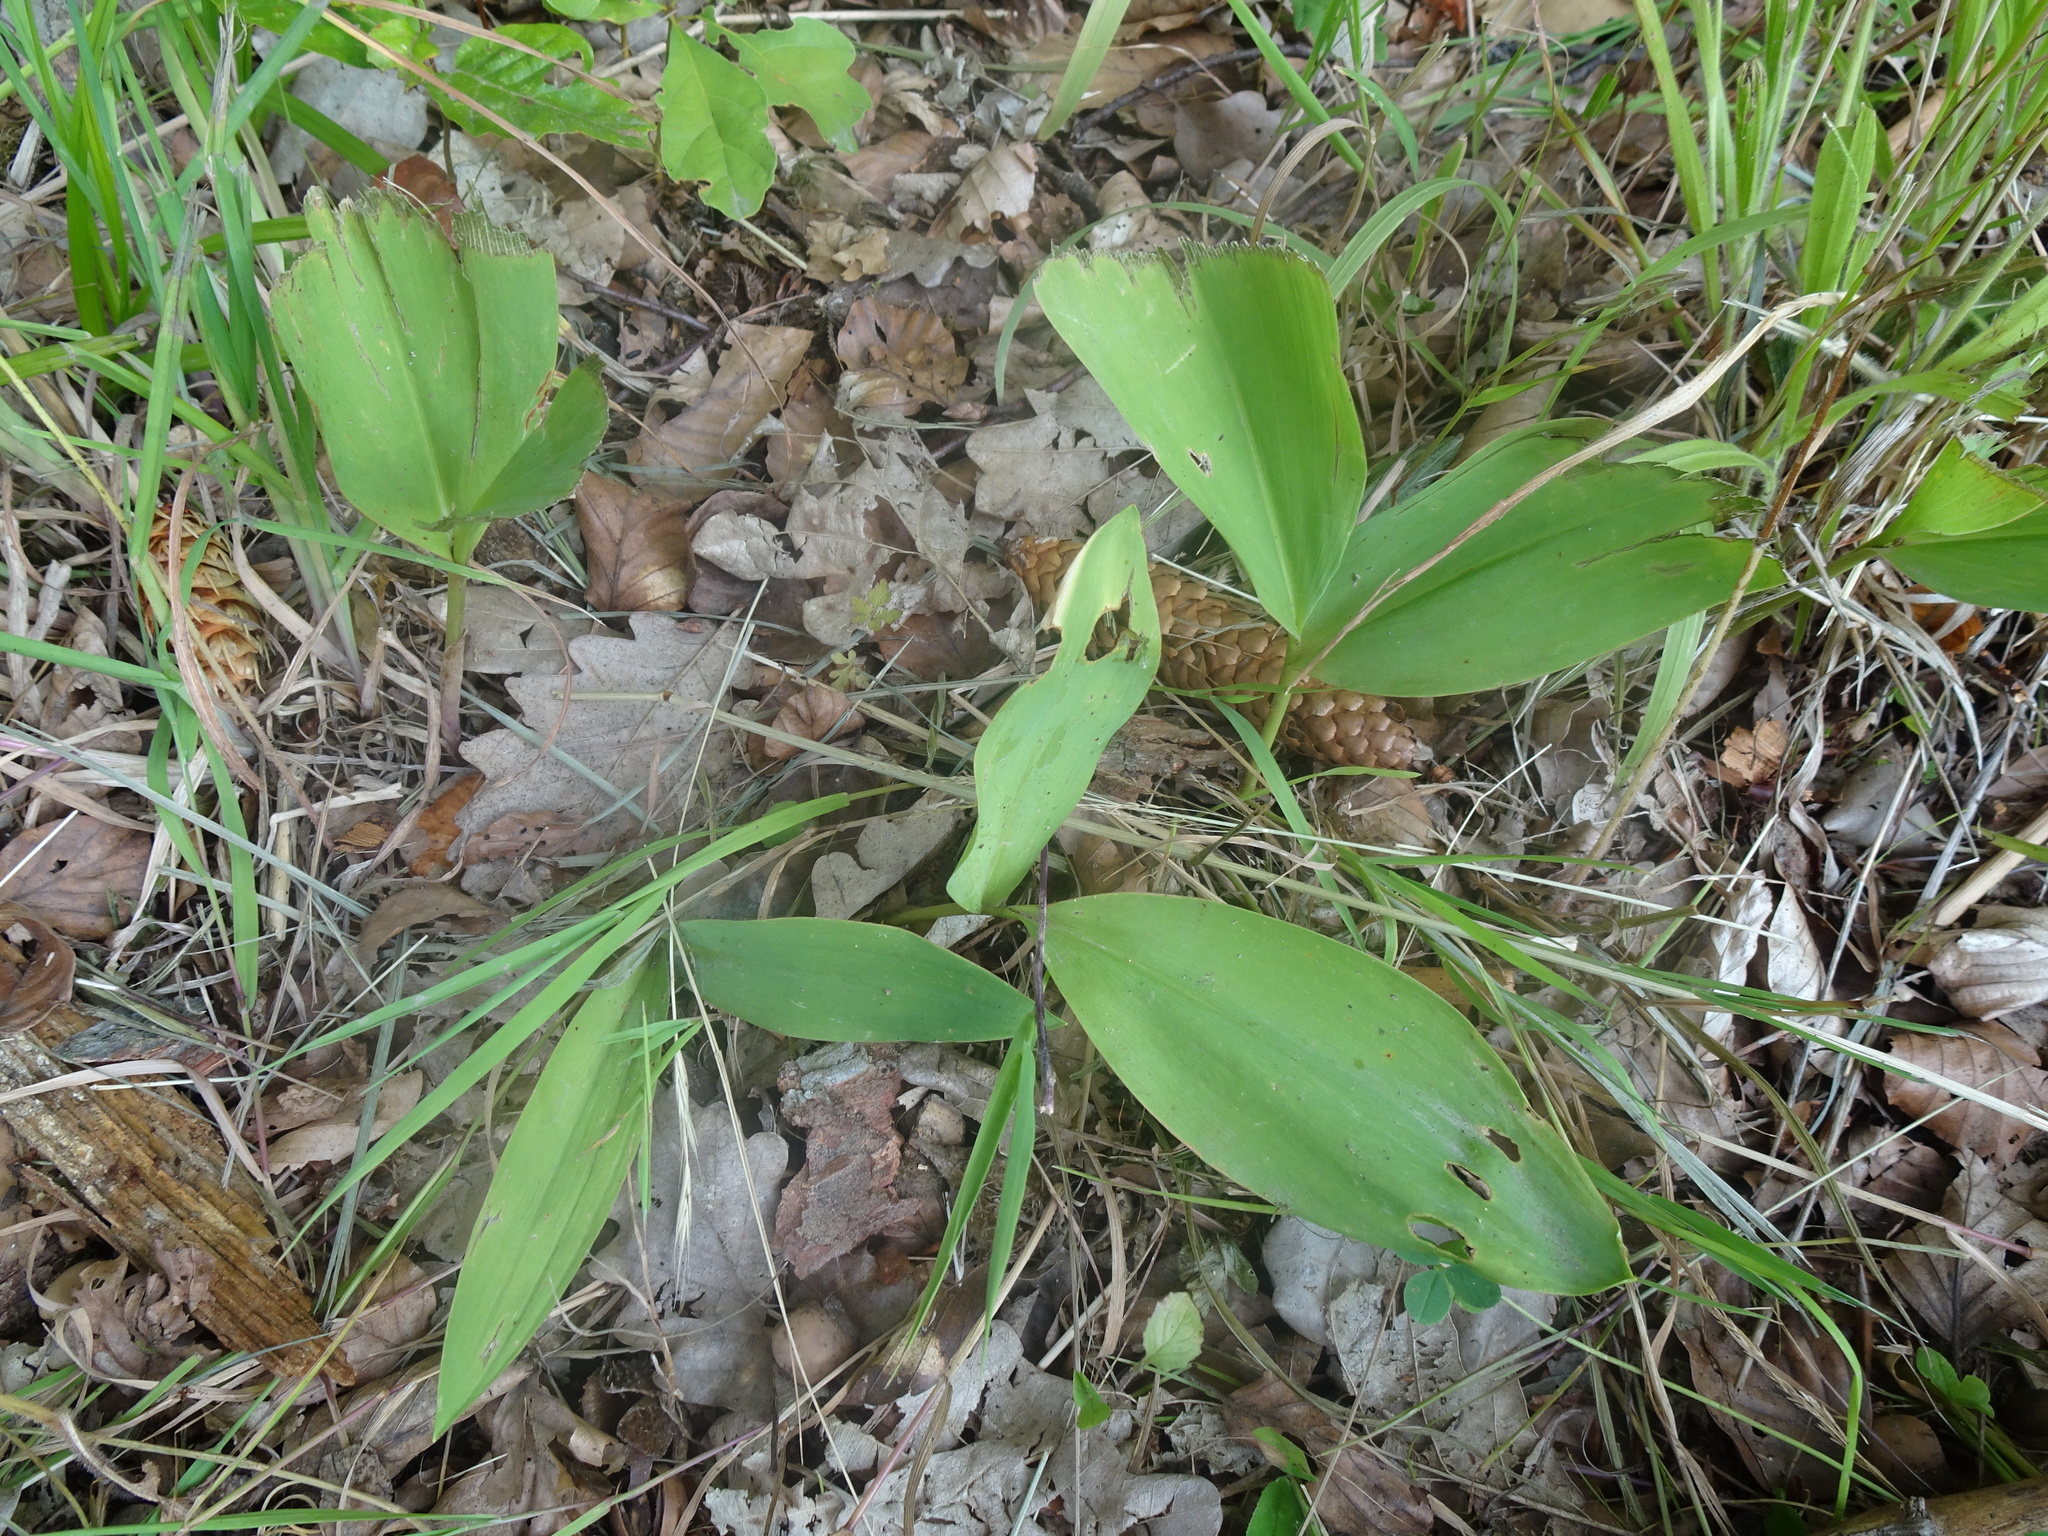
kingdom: Plantae
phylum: Tracheophyta
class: Liliopsida
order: Asparagales
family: Asparagaceae
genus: Convallaria
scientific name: Convallaria majalis
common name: Lily-of-the-valley
